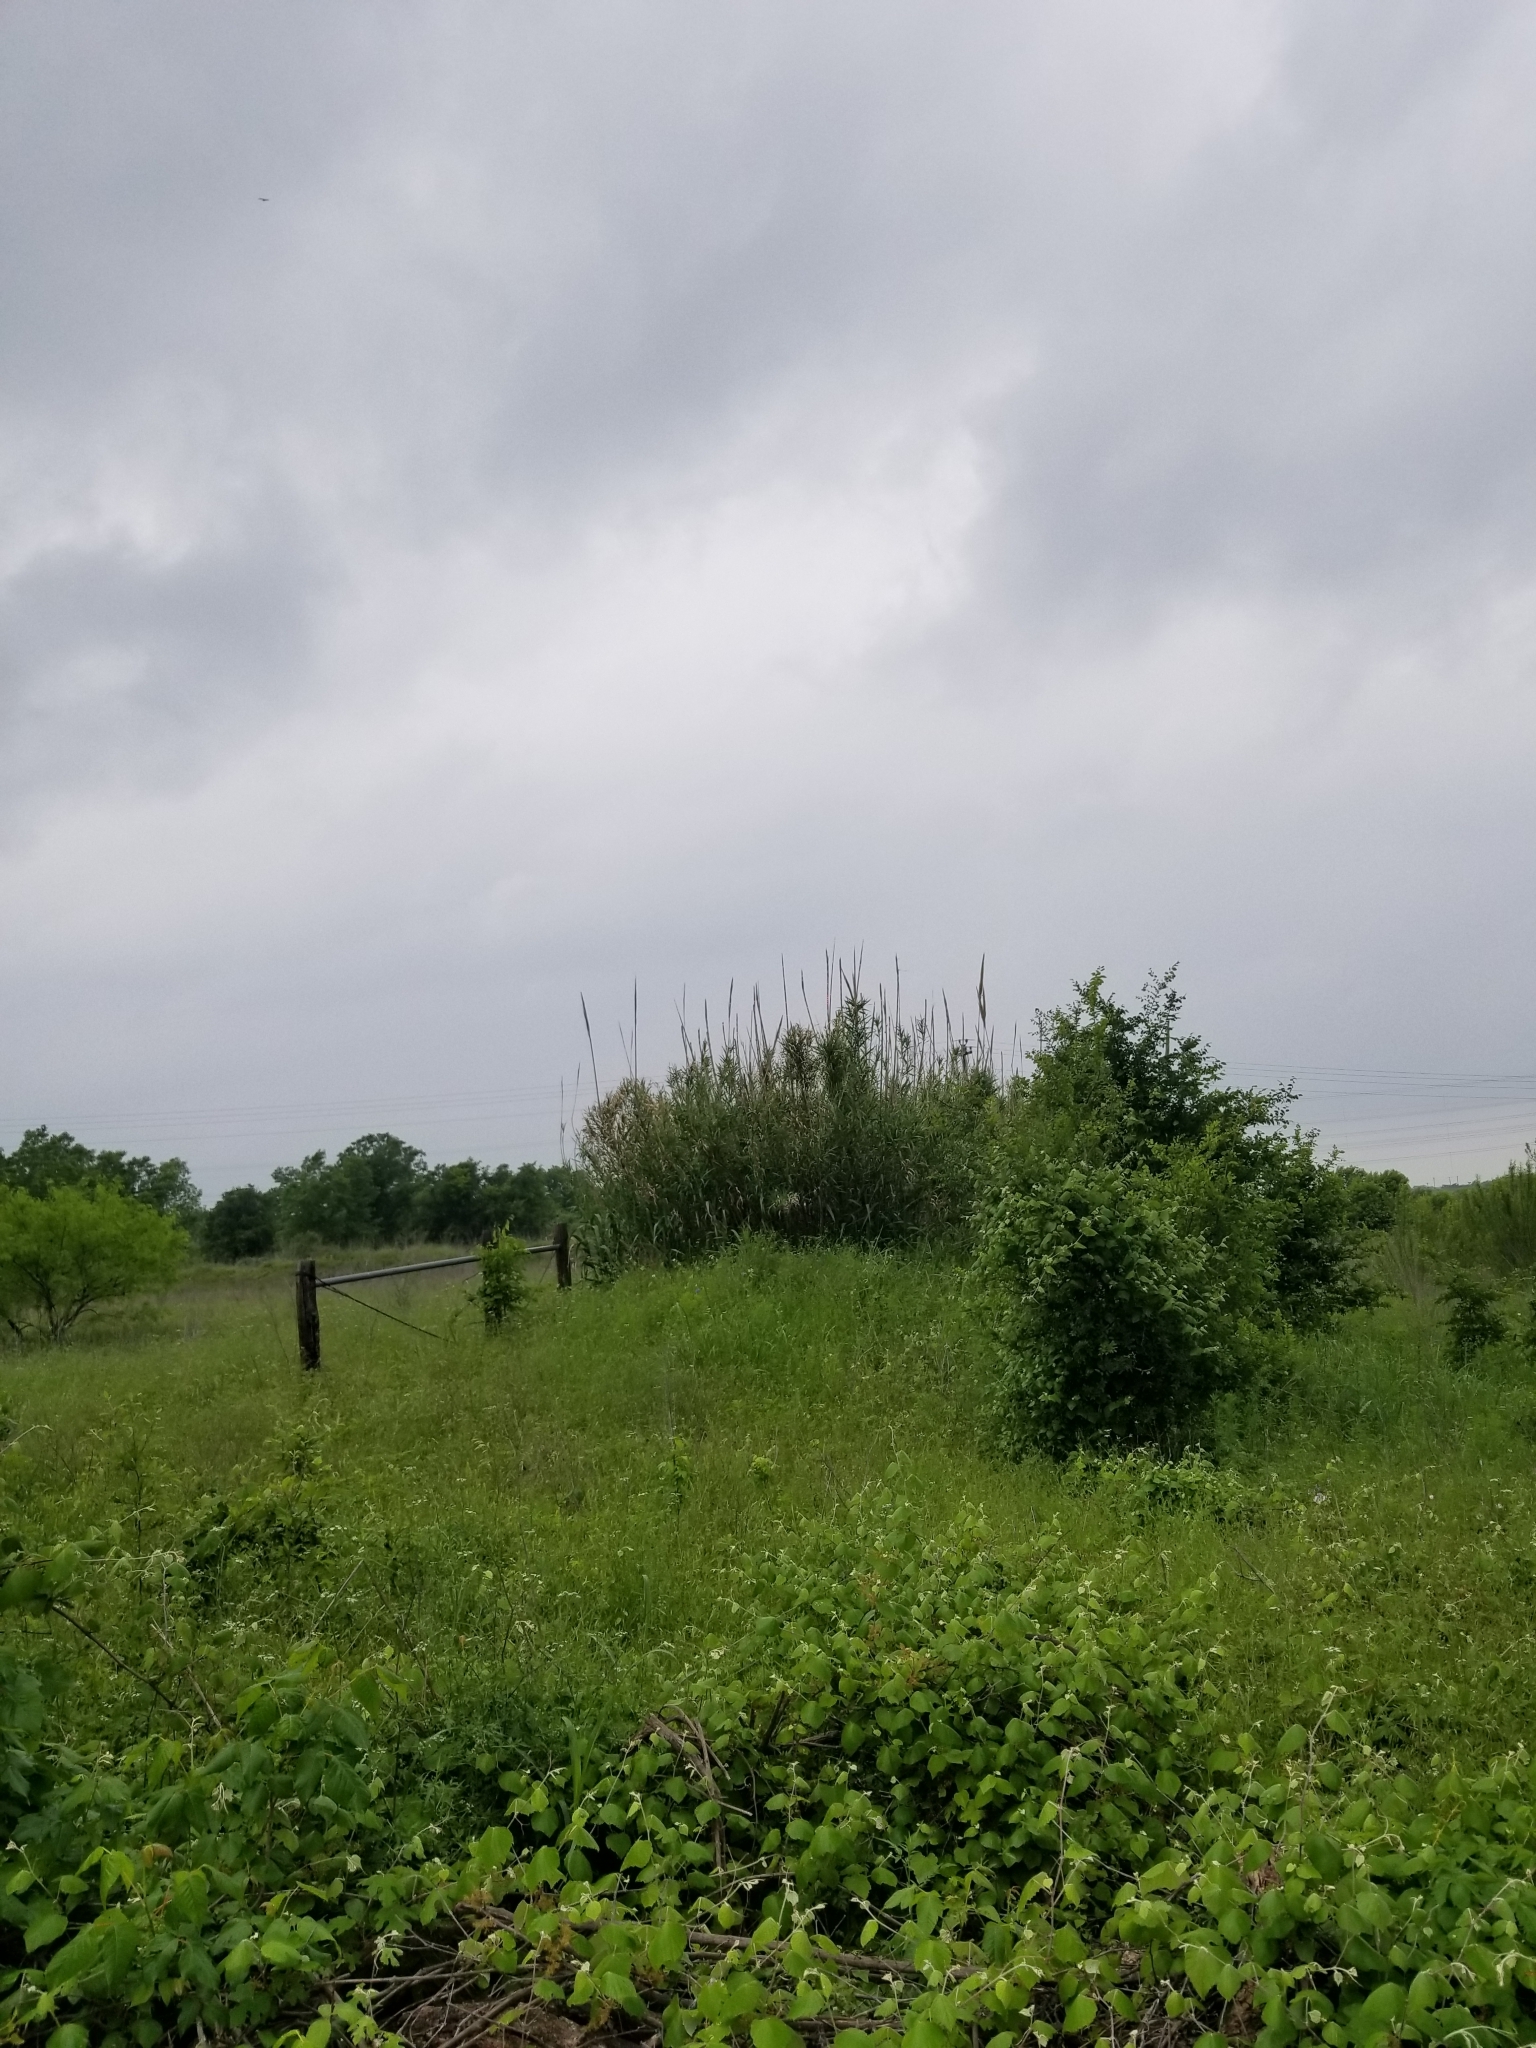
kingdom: Plantae
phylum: Tracheophyta
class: Liliopsida
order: Poales
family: Poaceae
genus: Arundo
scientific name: Arundo donax
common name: Giant reed
